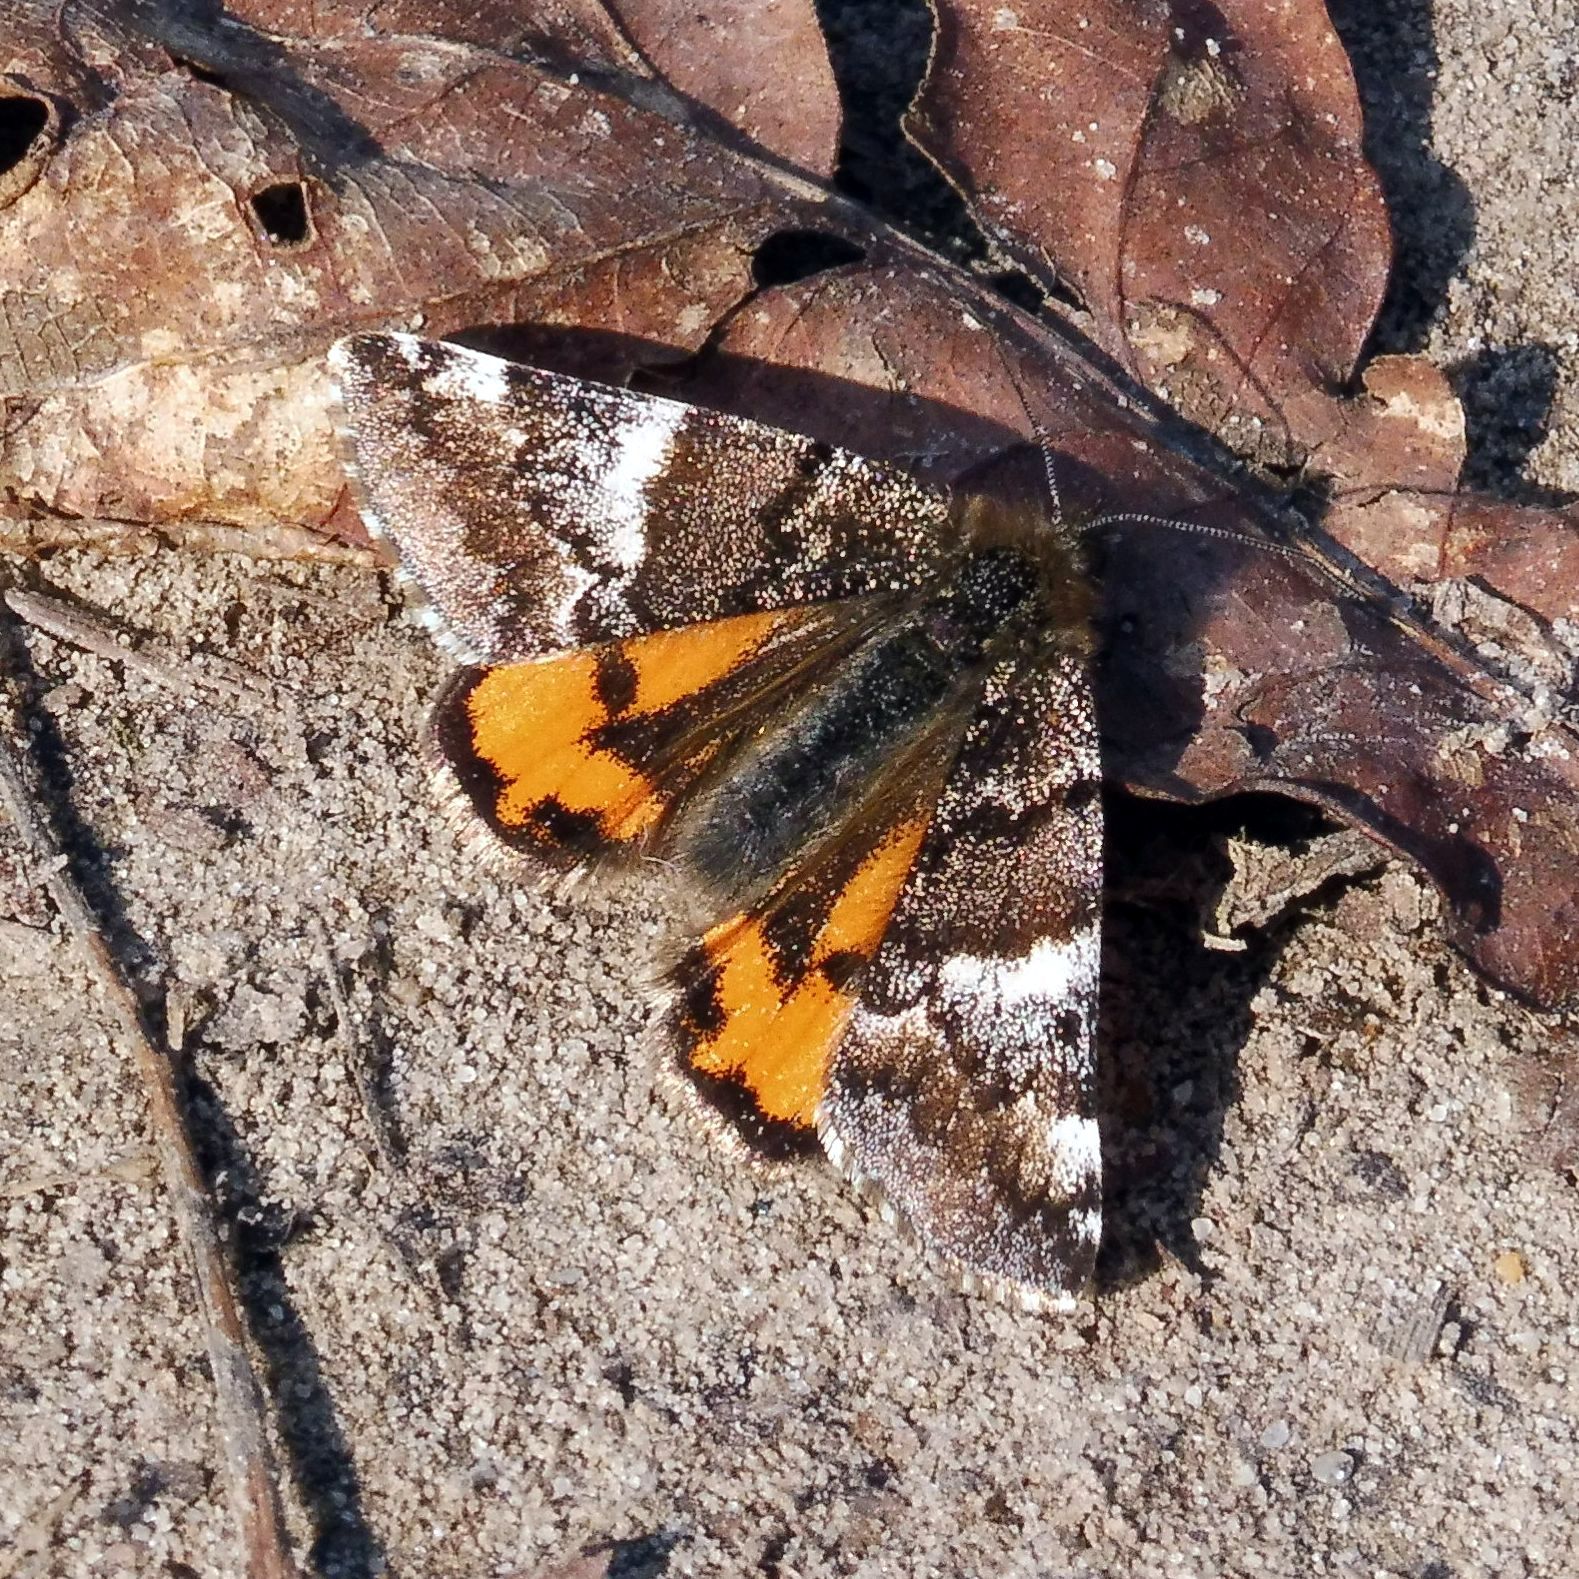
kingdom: Animalia
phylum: Arthropoda
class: Insecta
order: Lepidoptera
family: Geometridae
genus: Archiearis
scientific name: Archiearis parthenias
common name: Orange underwing
